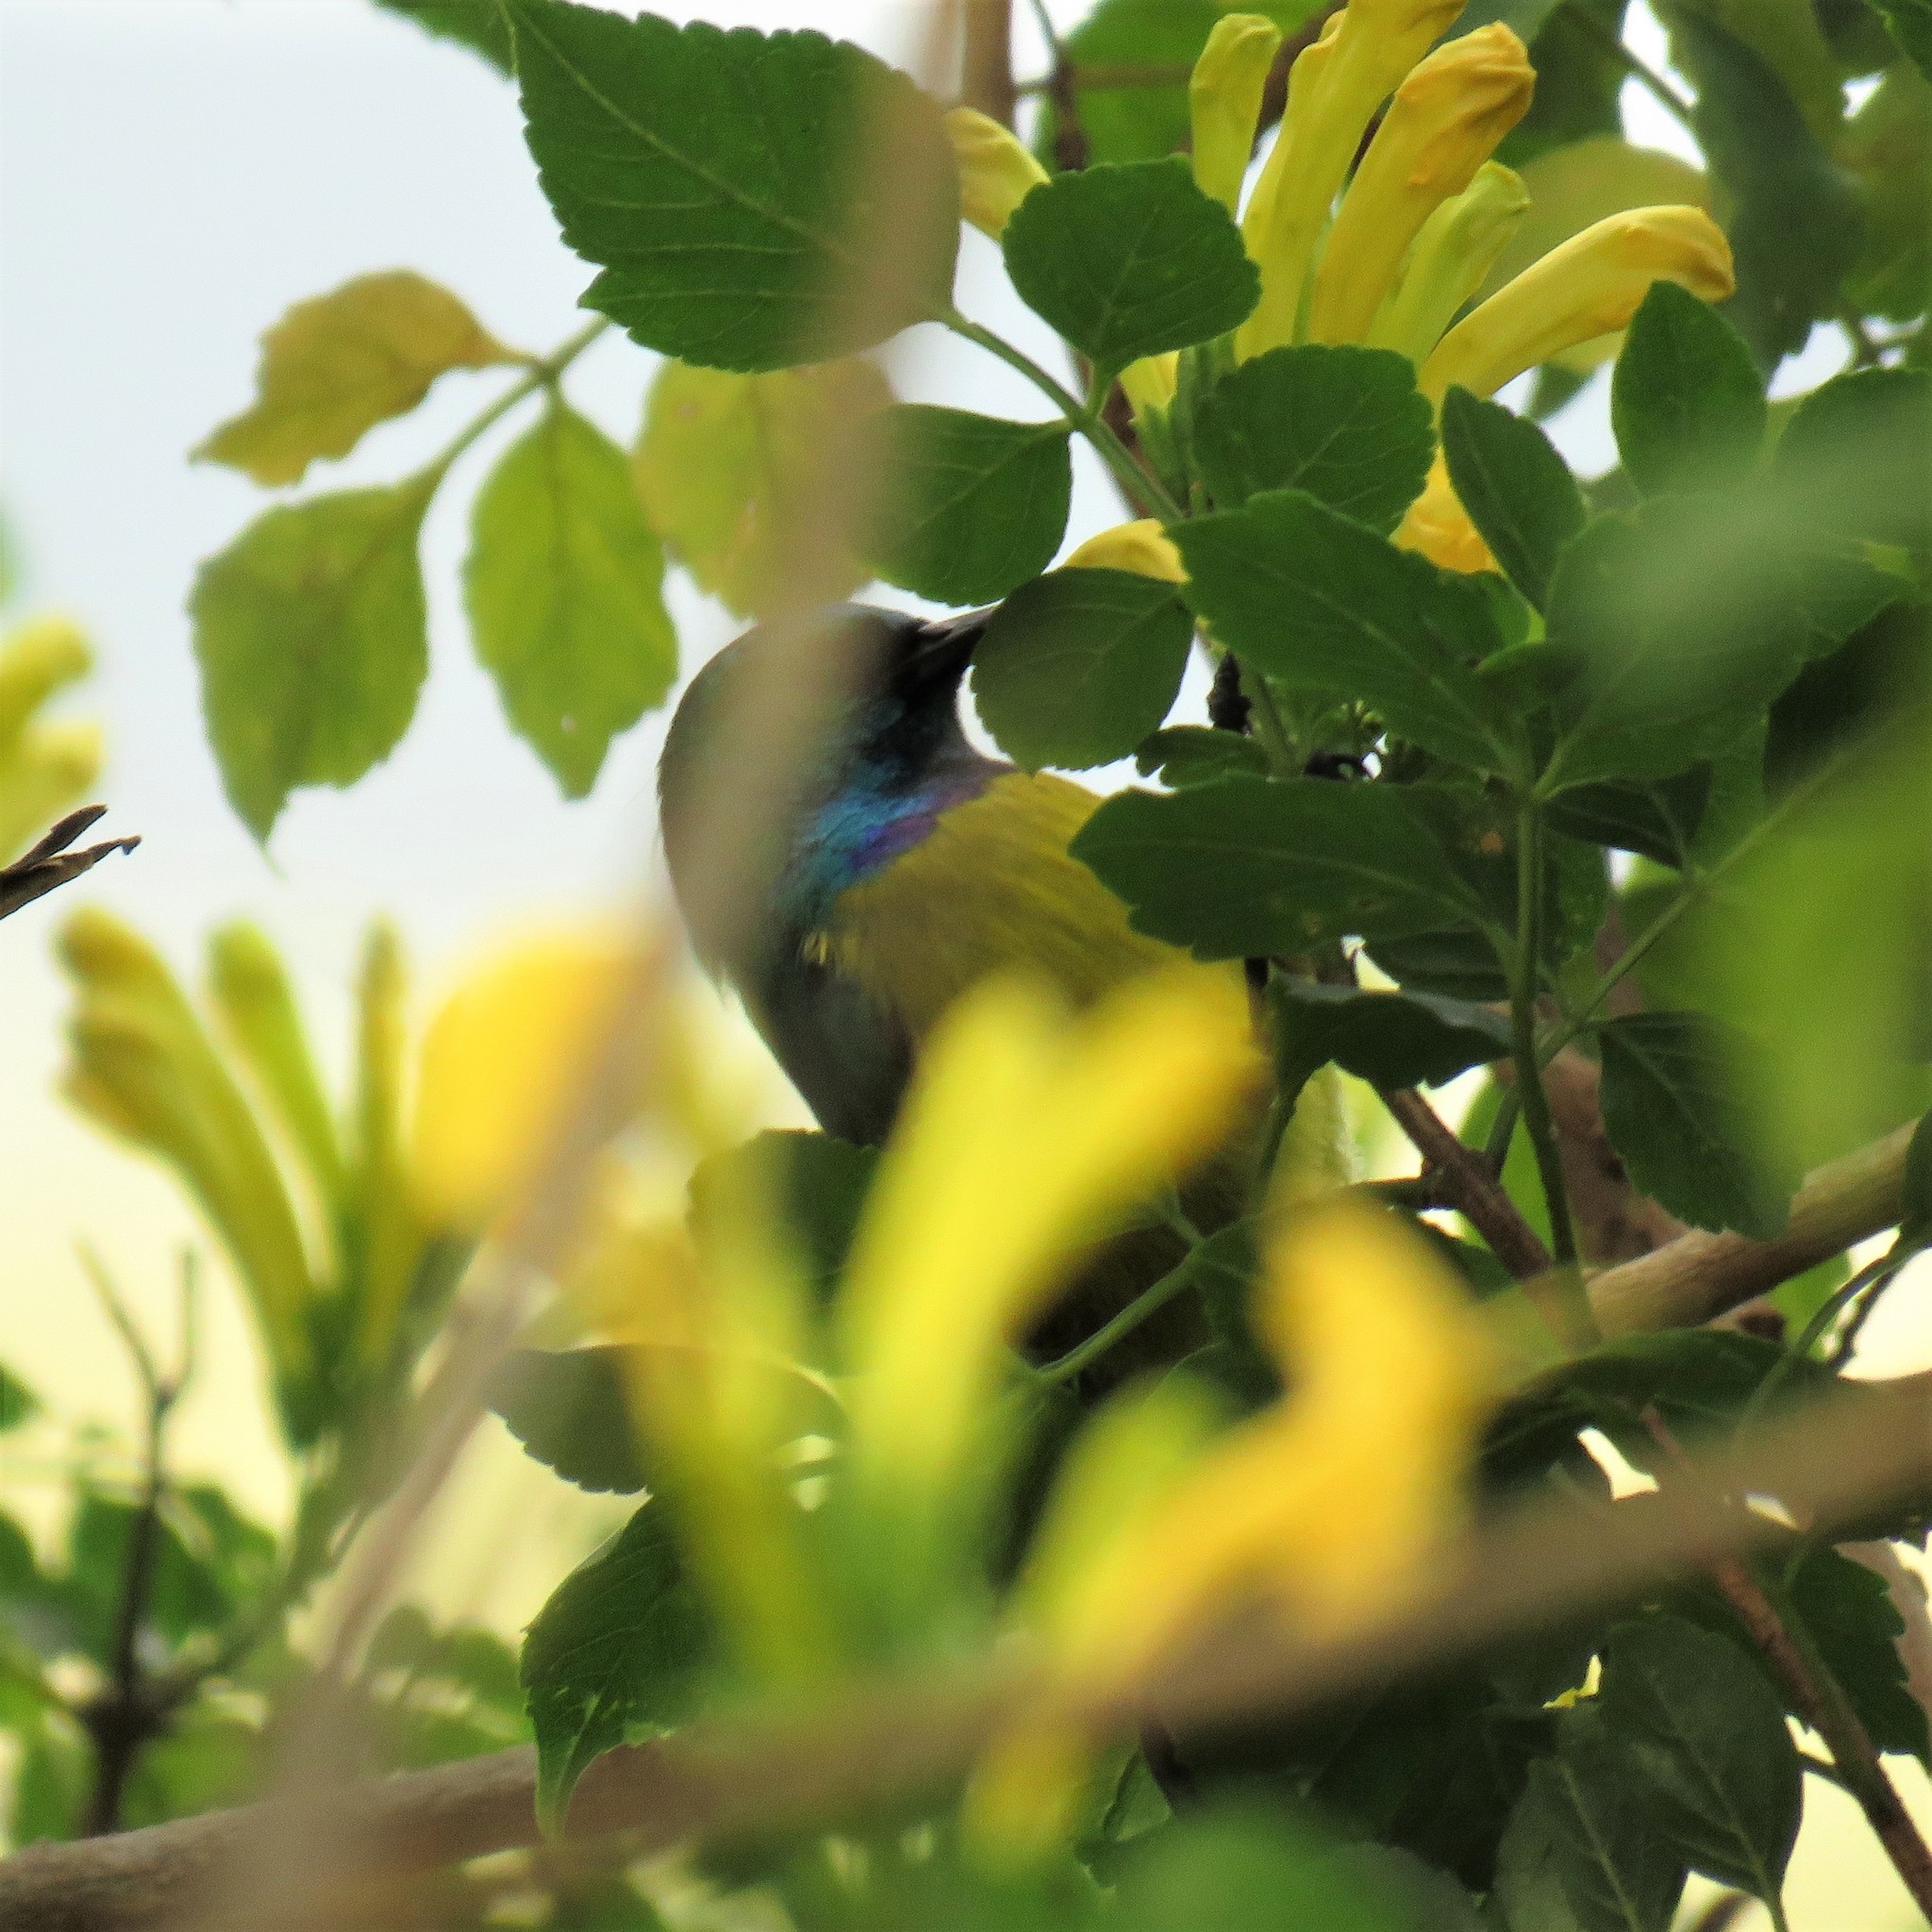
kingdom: Animalia
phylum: Chordata
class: Aves
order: Passeriformes
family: Nectariniidae
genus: Hedydipna
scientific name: Hedydipna collaris
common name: Collared sunbird
